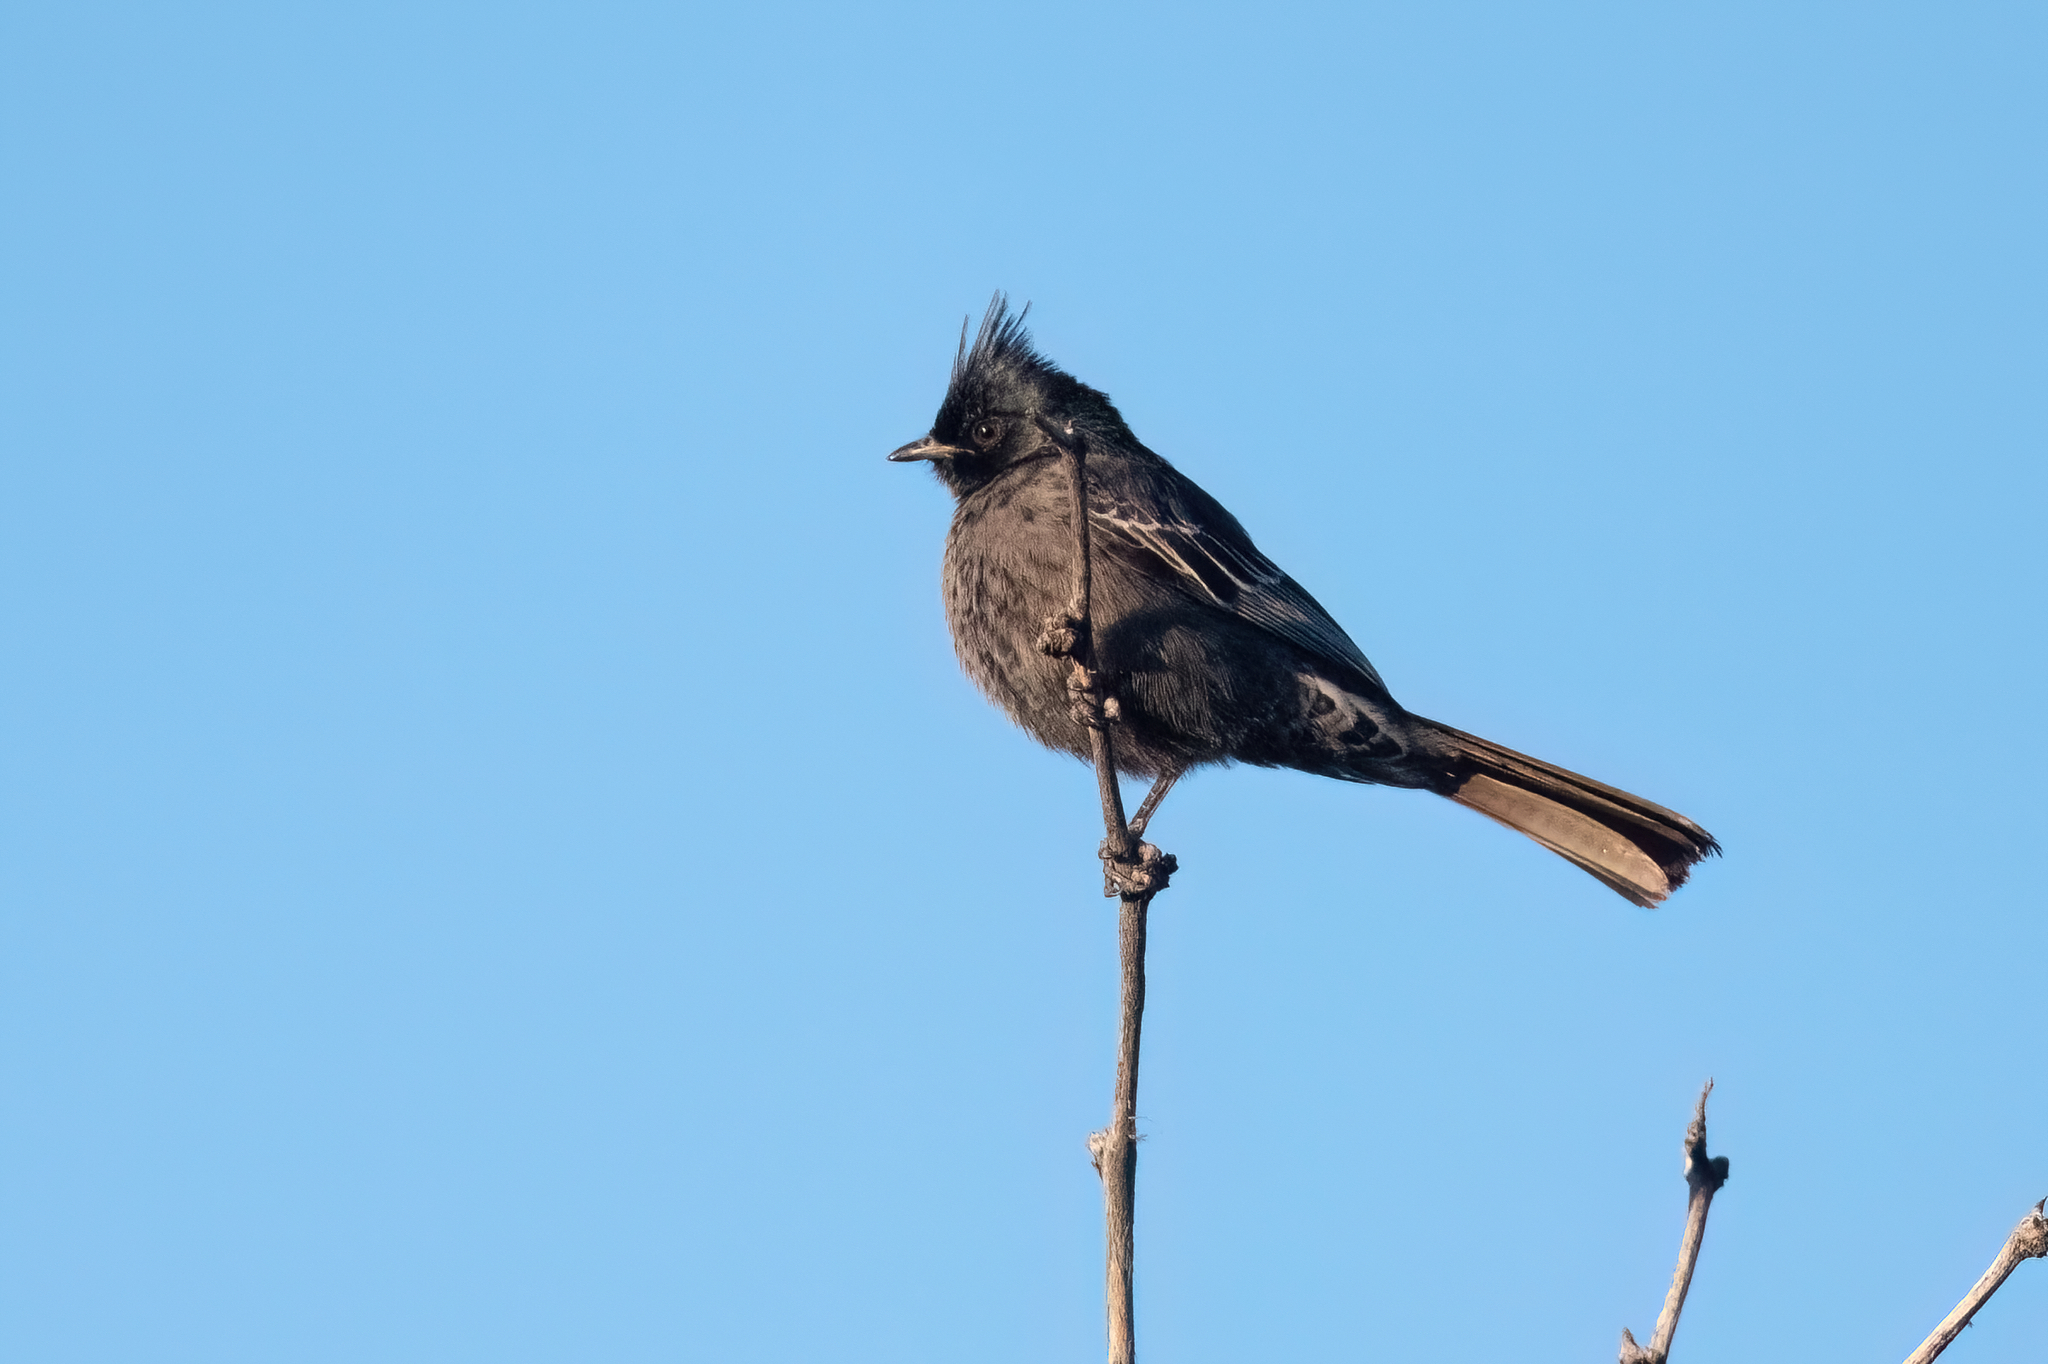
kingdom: Animalia
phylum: Chordata
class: Aves
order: Passeriformes
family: Ptilogonatidae
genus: Phainopepla
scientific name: Phainopepla nitens
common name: Phainopepla
